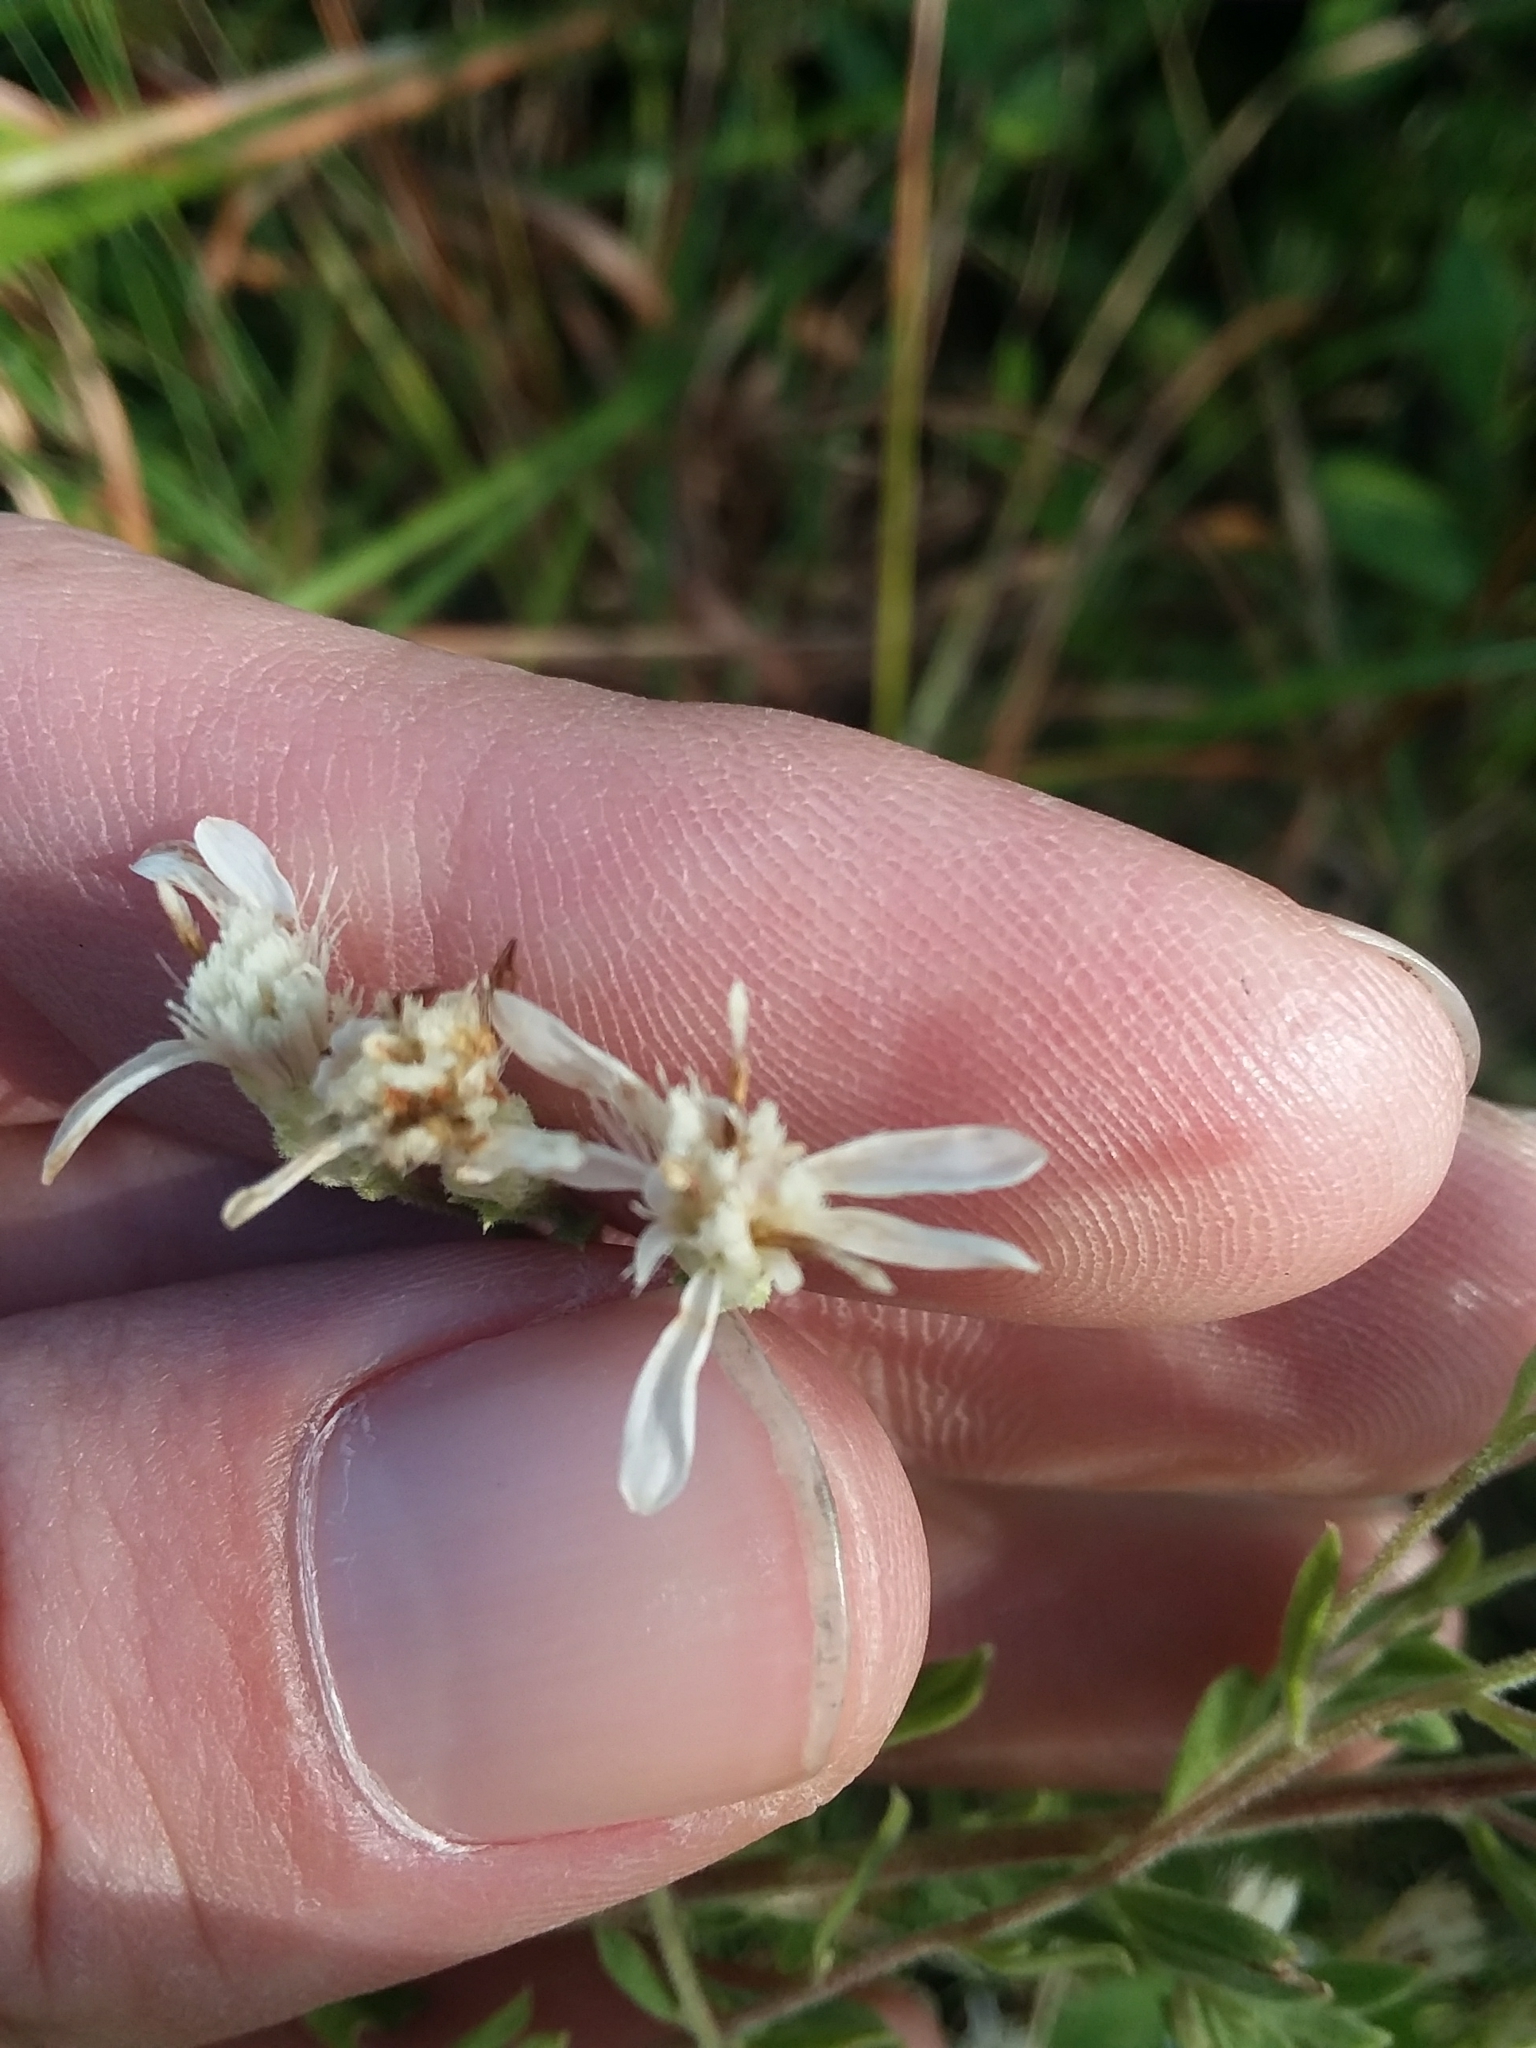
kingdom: Plantae
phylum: Tracheophyta
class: Magnoliopsida
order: Asterales
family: Asteraceae
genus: Sericocarpus
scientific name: Sericocarpus tortifolius
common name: Dixie aster
